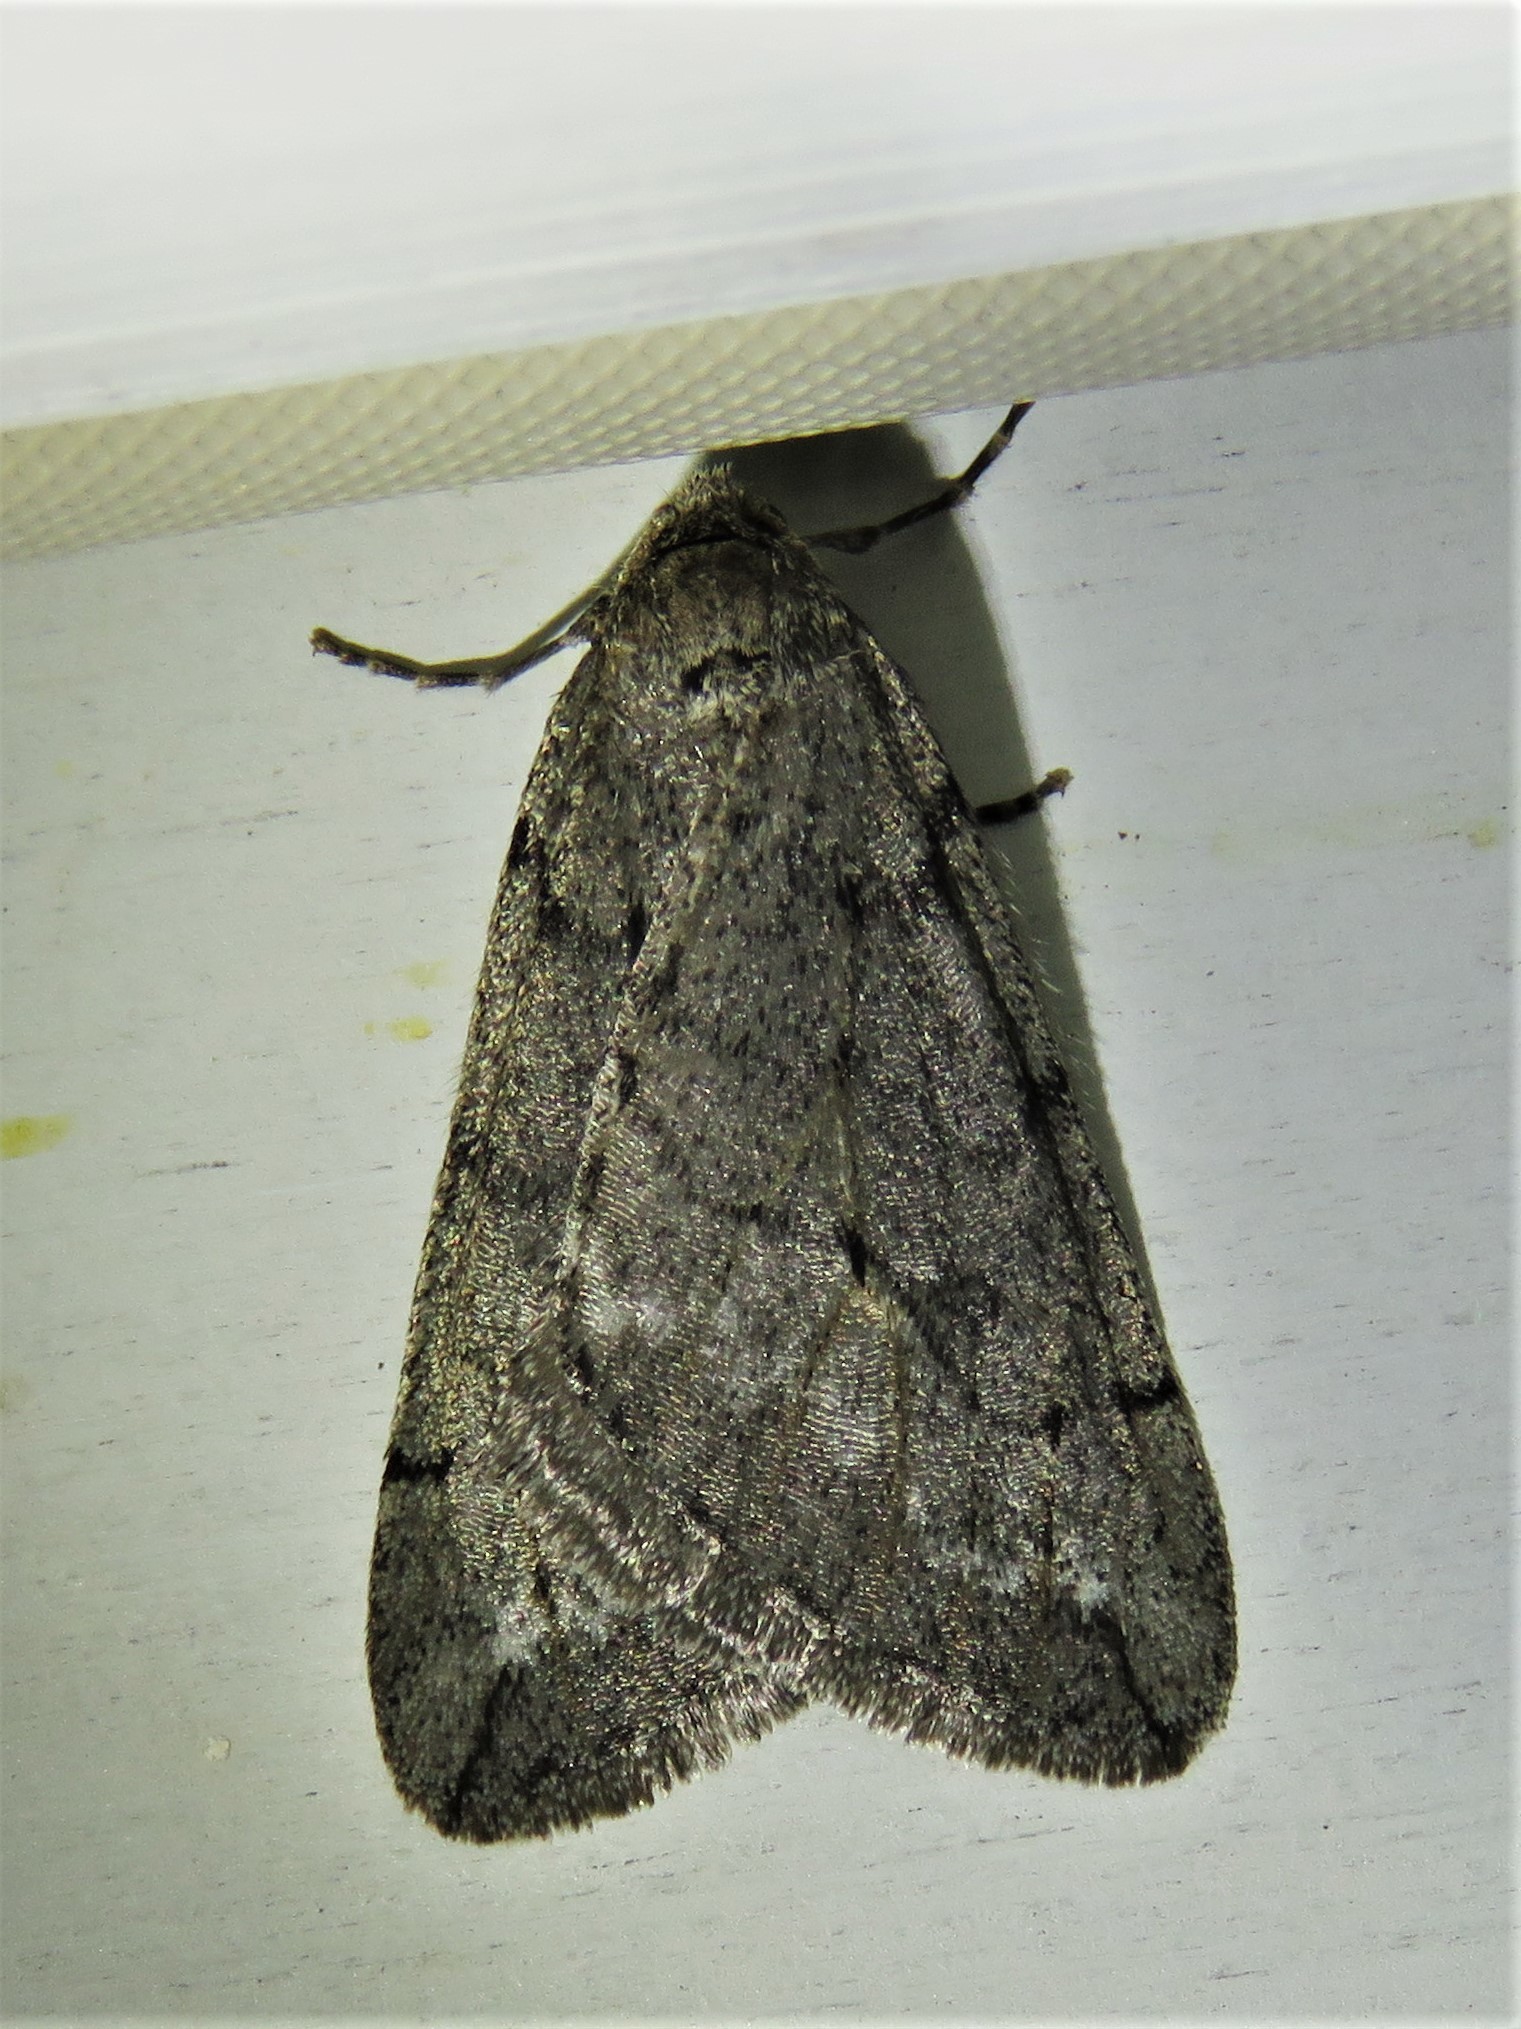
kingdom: Animalia
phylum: Arthropoda
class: Insecta
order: Lepidoptera
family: Geometridae
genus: Paleacrita
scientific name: Paleacrita vernata
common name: Spring cankerworm
